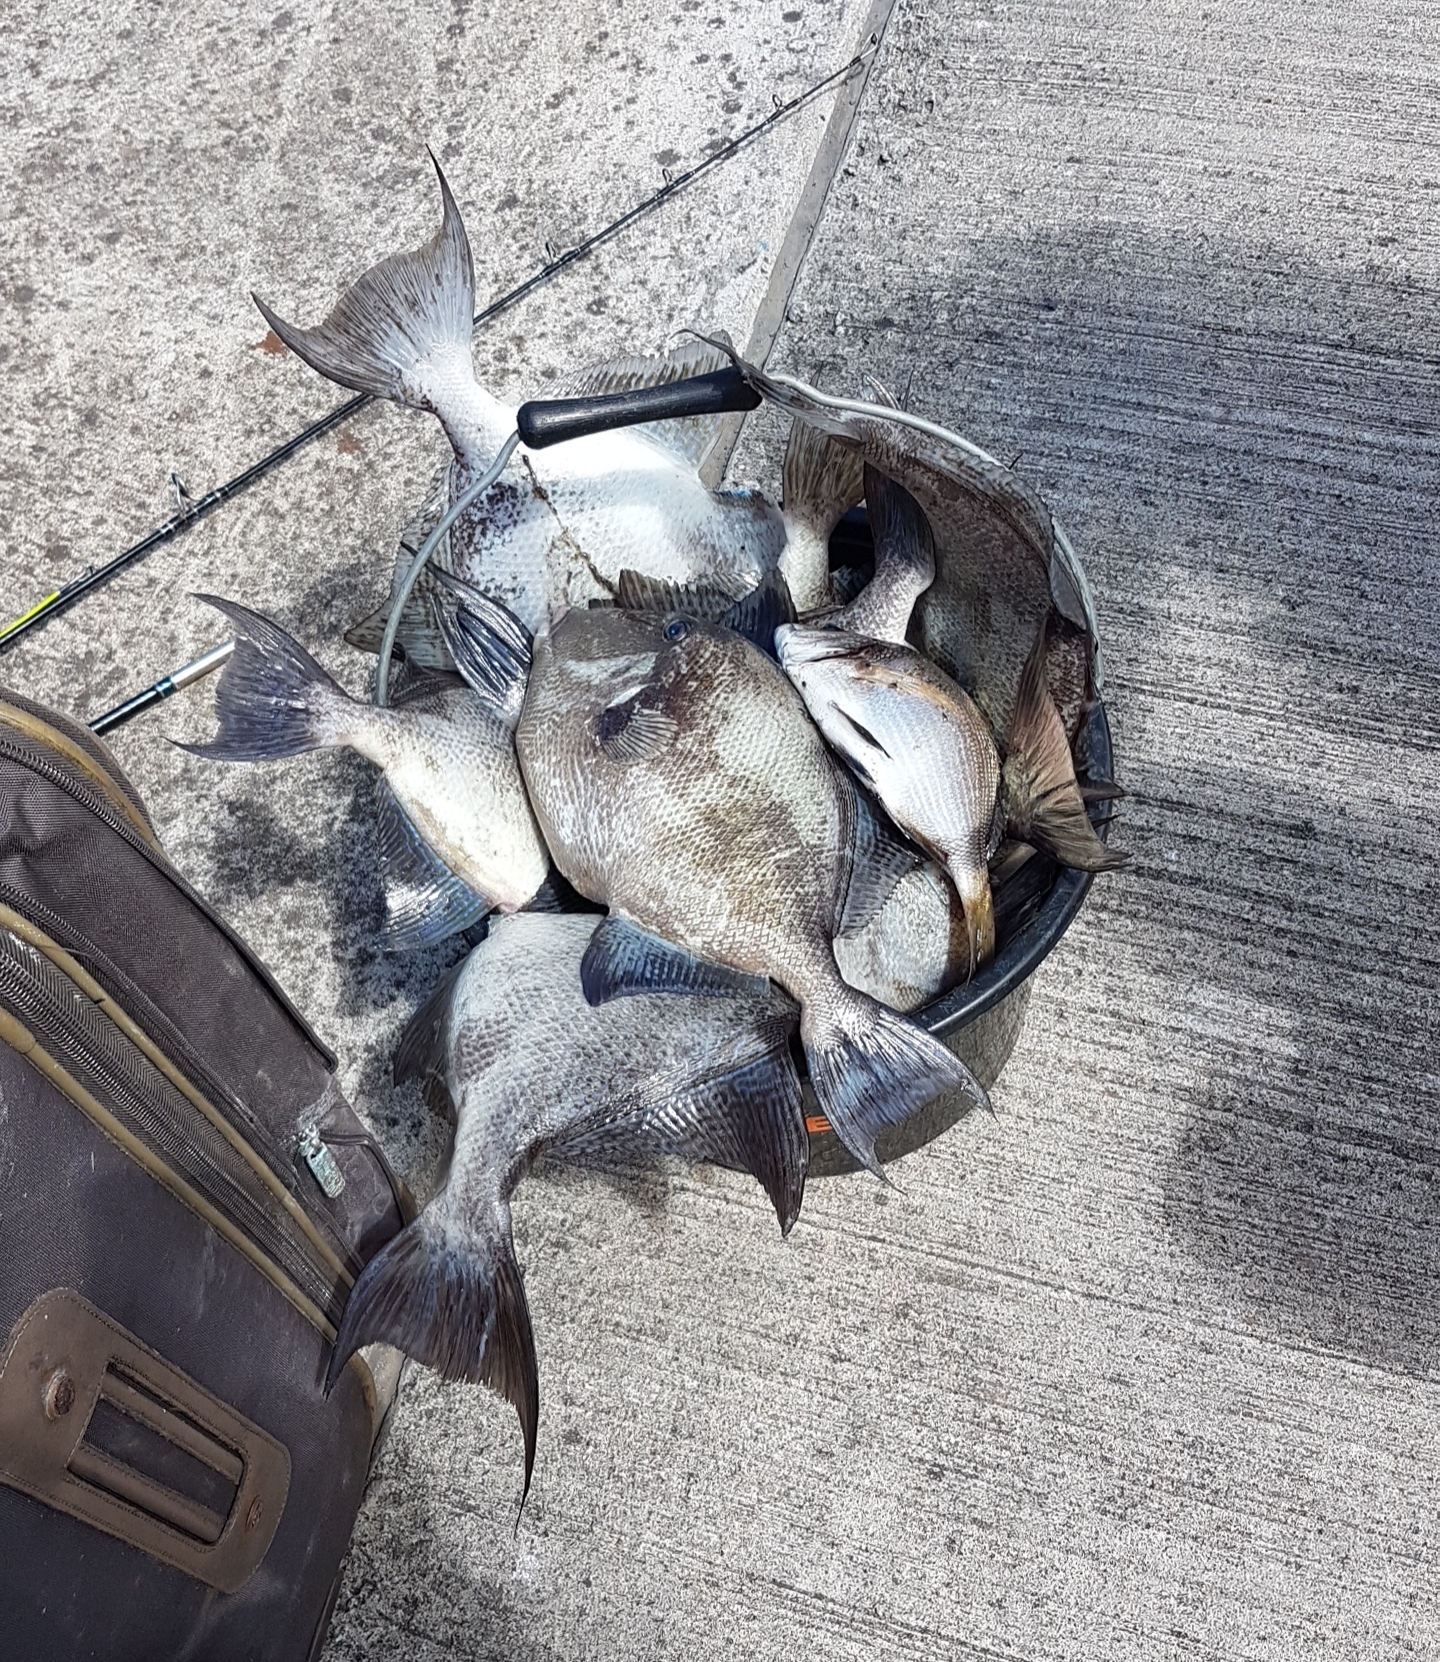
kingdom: Animalia
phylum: Chordata
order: Tetraodontiformes
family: Balistidae
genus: Balistes
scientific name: Balistes capriscus
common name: Grey triggerfish
